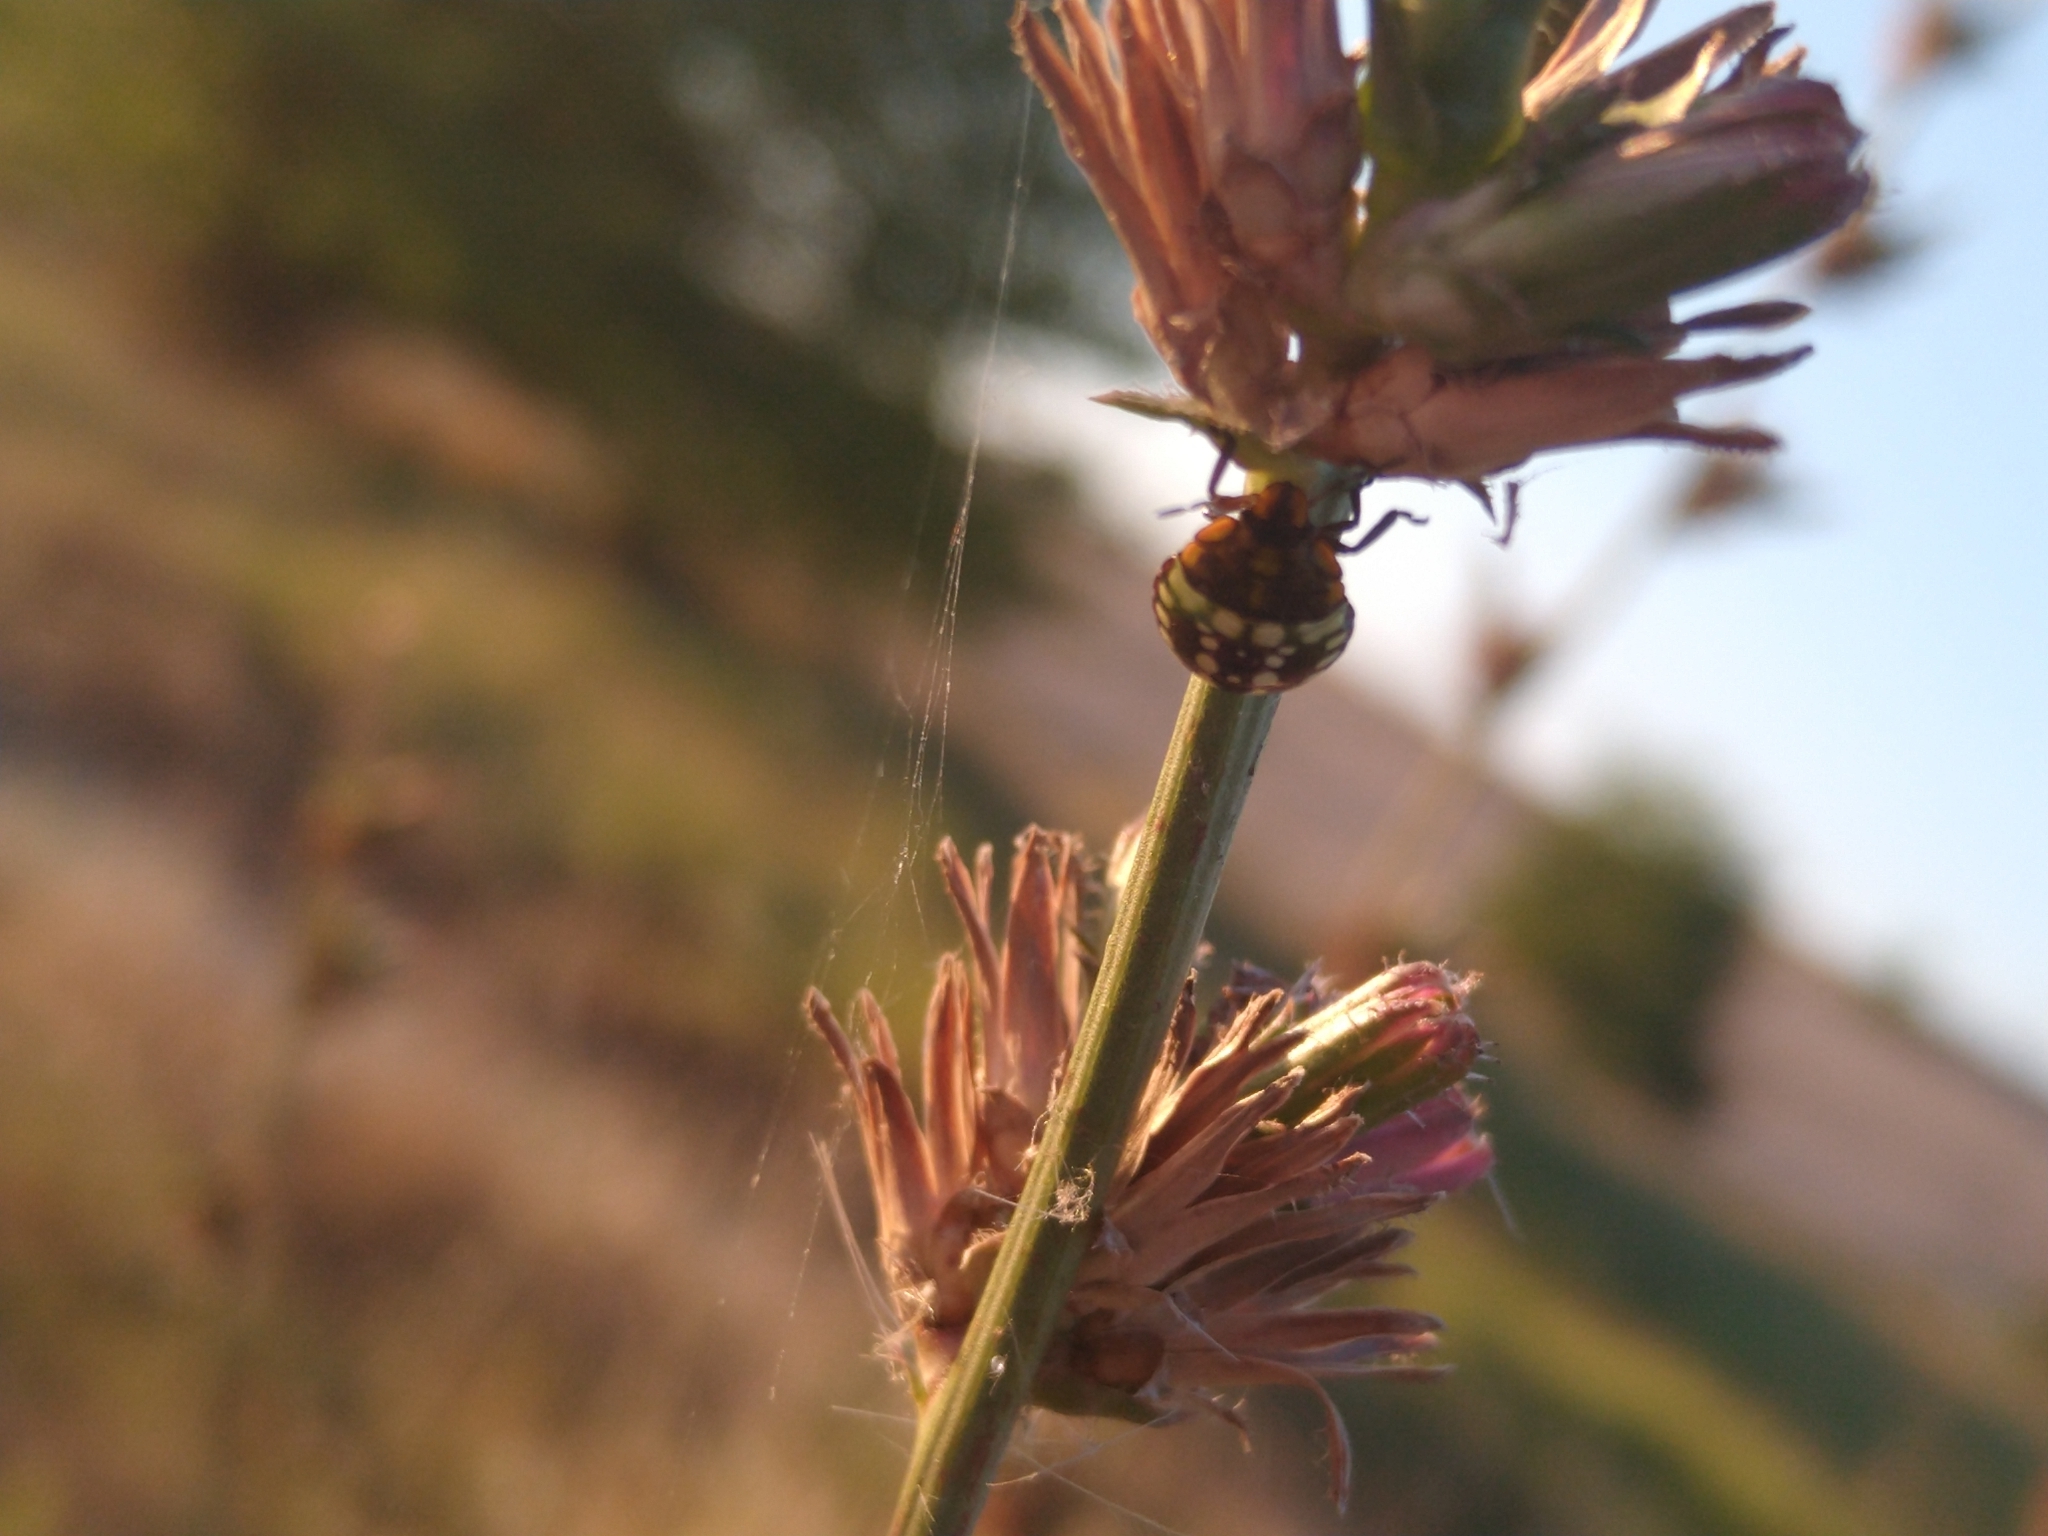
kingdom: Animalia
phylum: Arthropoda
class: Insecta
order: Hemiptera
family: Pentatomidae
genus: Nezara
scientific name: Nezara viridula
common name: Southern green stink bug
